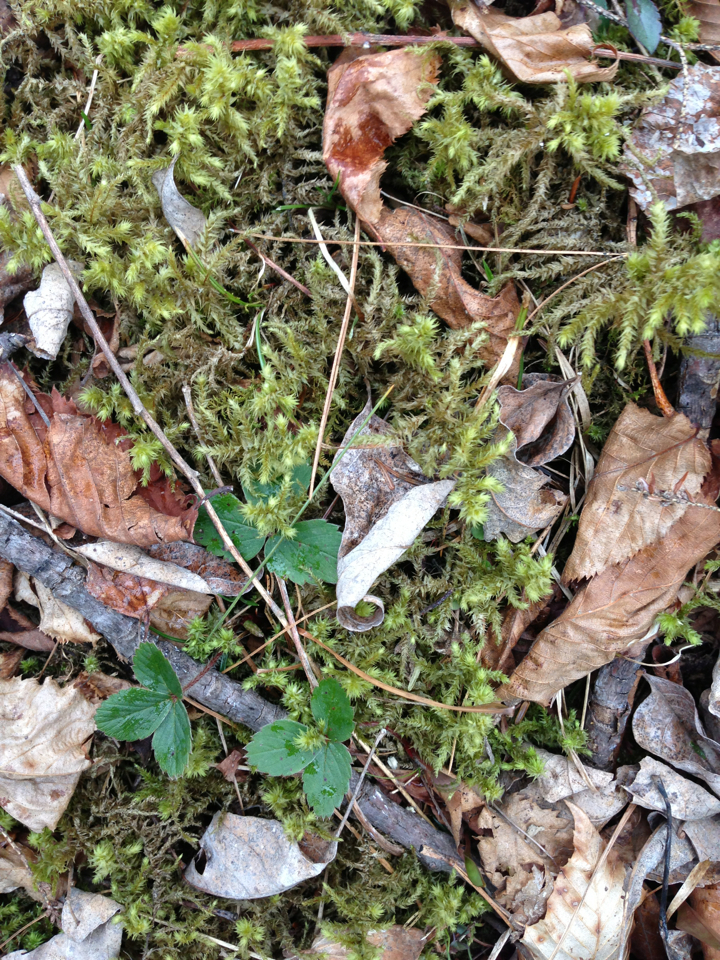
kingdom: Plantae
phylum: Tracheophyta
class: Magnoliopsida
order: Rosales
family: Rosaceae
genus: Fragaria
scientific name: Fragaria virginiana
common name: Thickleaved wild strawberry
